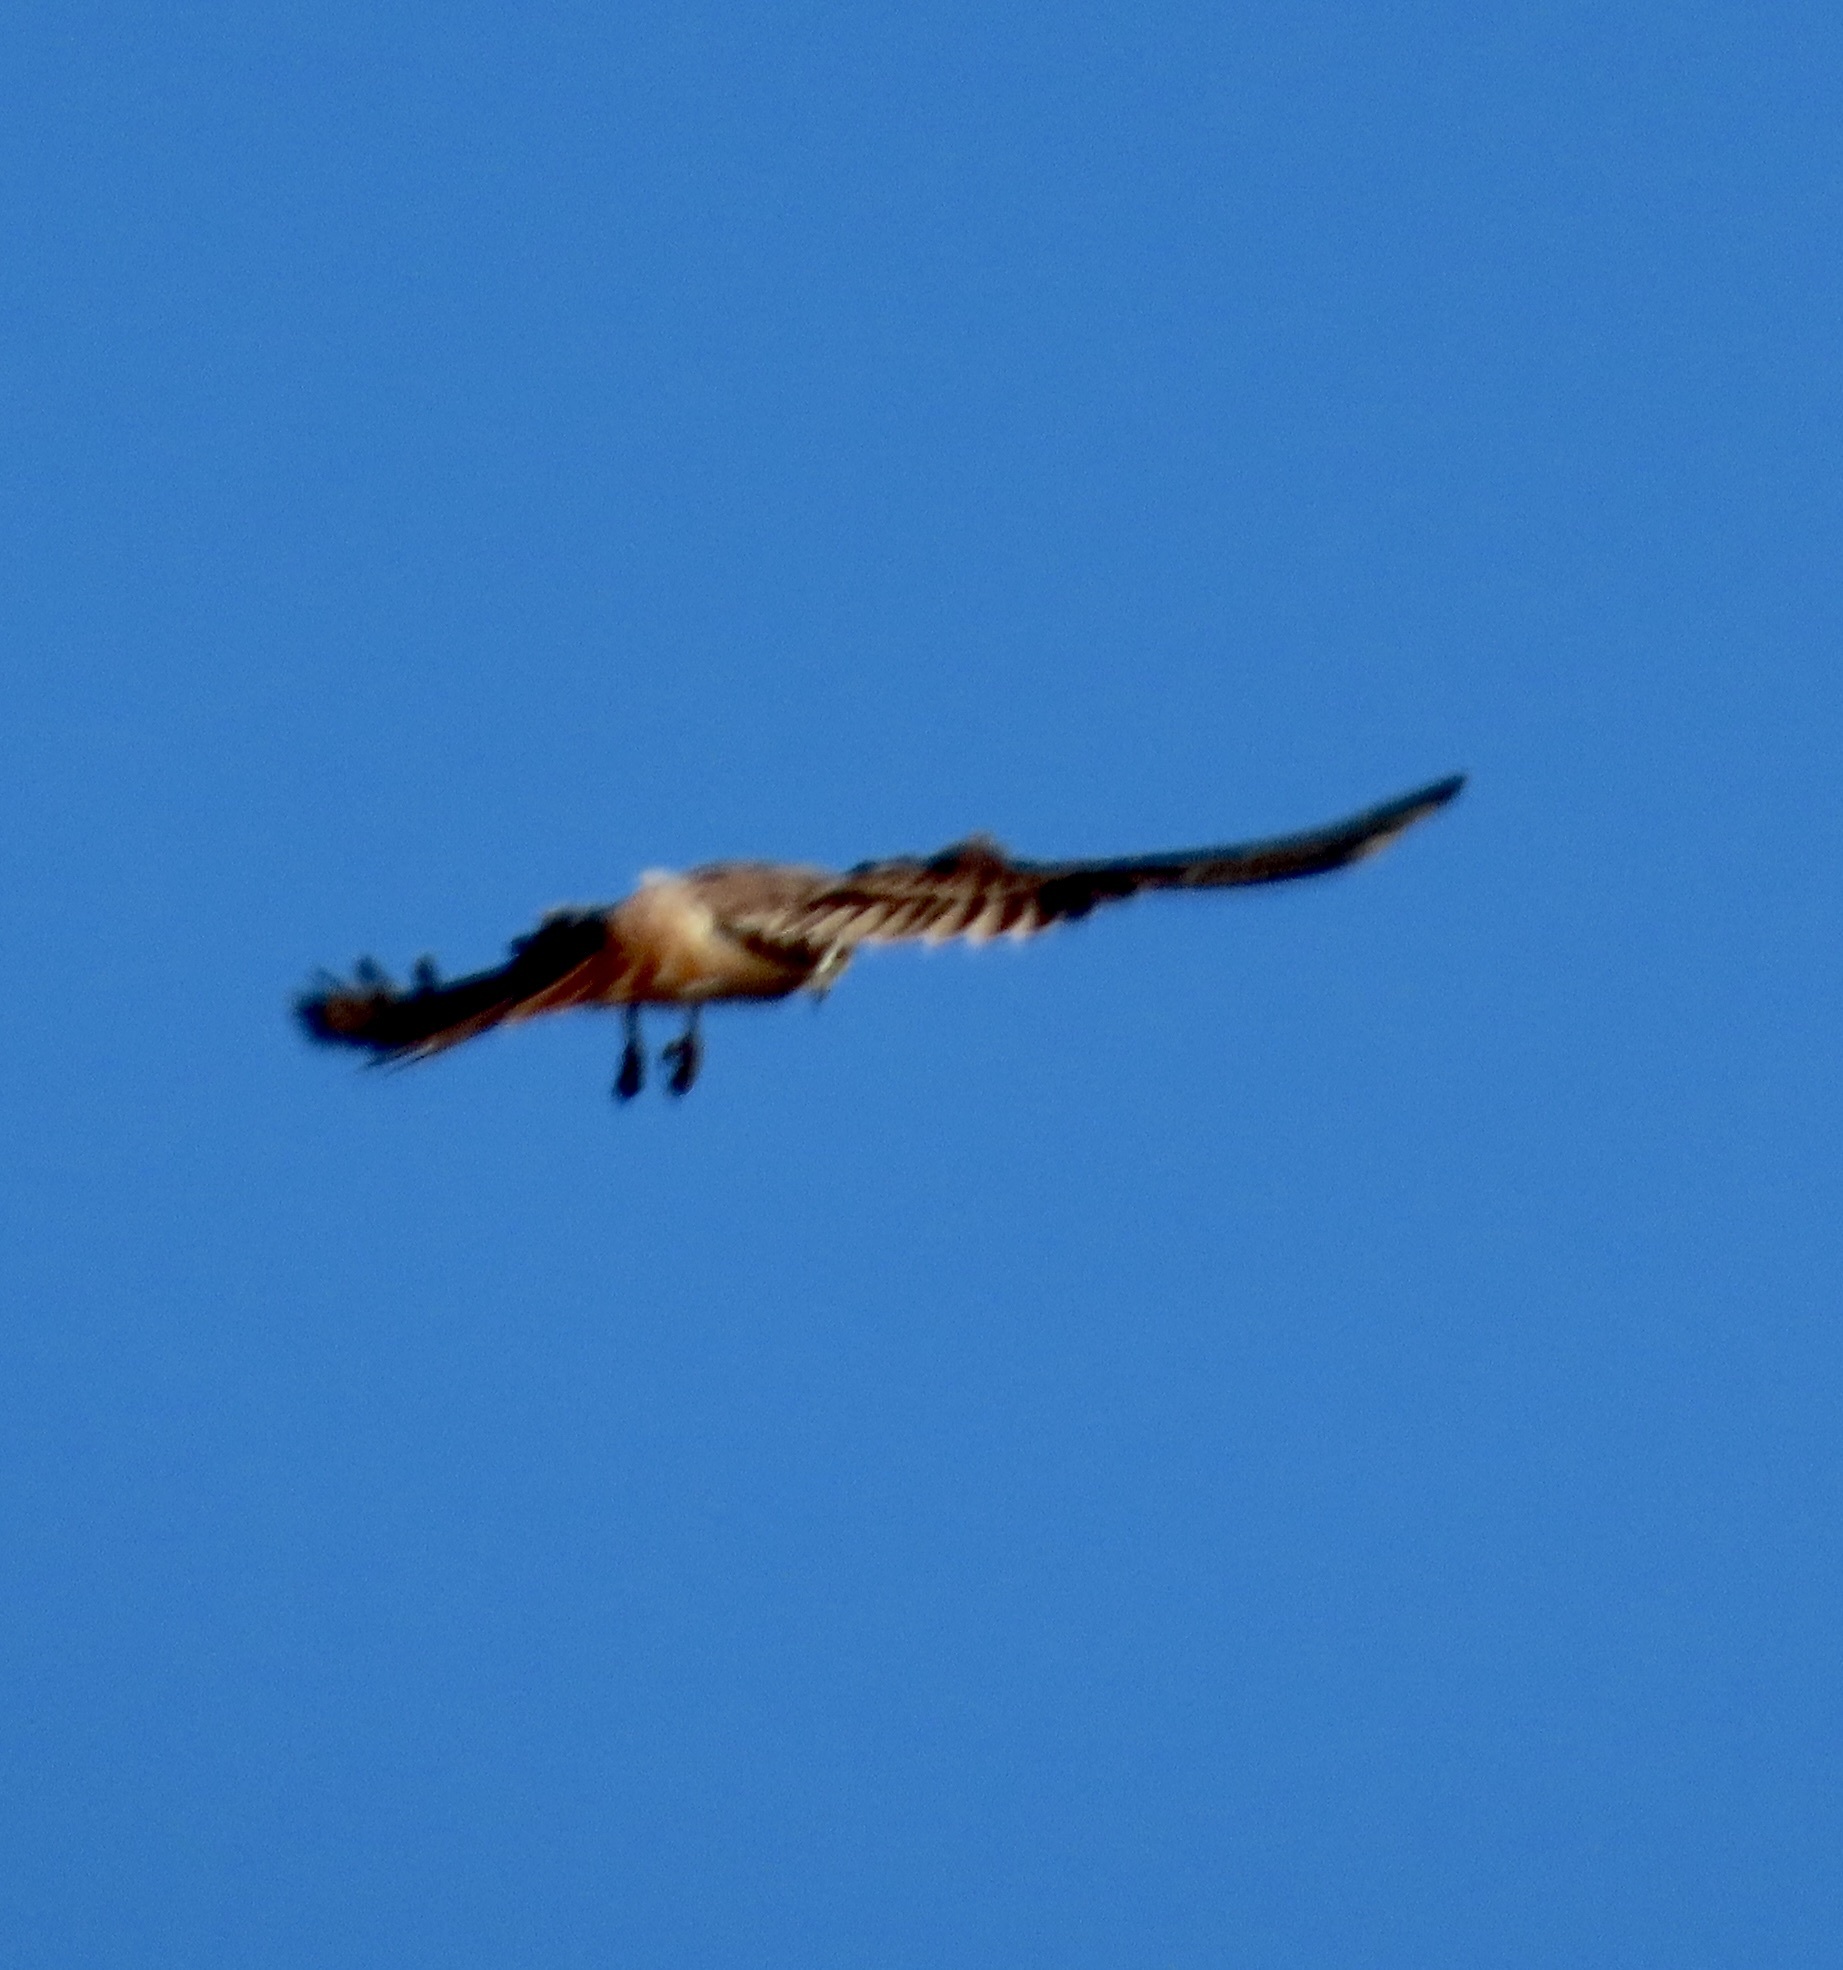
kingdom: Animalia
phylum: Chordata
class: Aves
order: Accipitriformes
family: Accipitridae
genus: Buteo
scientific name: Buteo jamaicensis
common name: Red-tailed hawk
